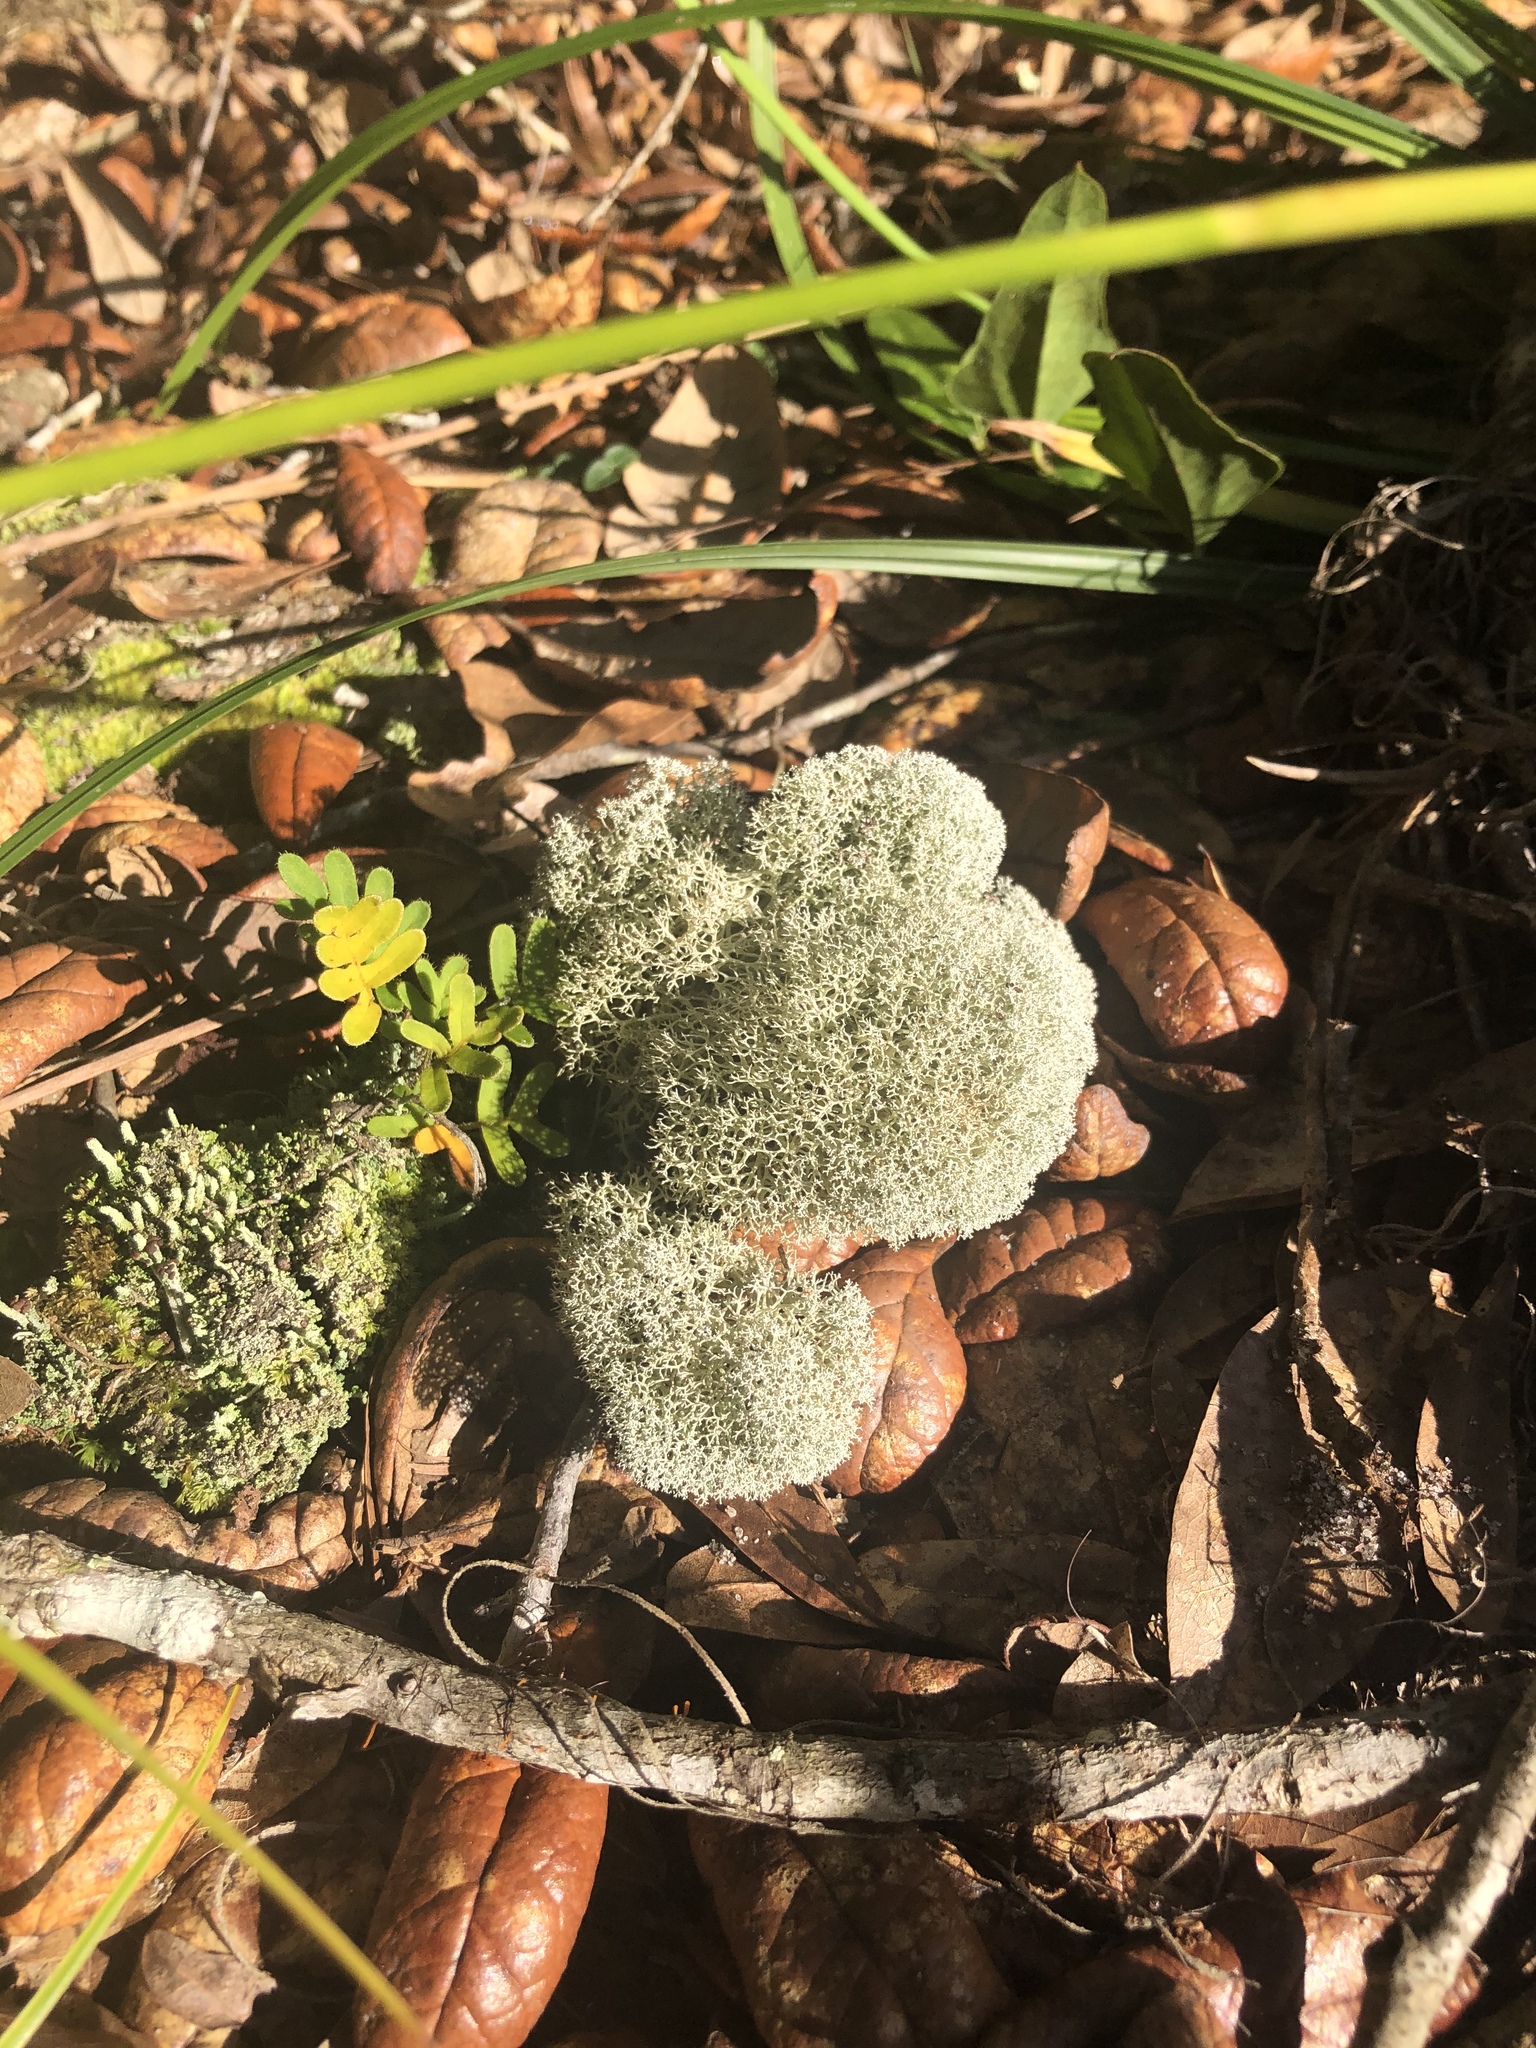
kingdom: Fungi
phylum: Ascomycota
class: Lecanoromycetes
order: Lecanorales
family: Cladoniaceae
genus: Cladonia
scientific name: Cladonia evansii
